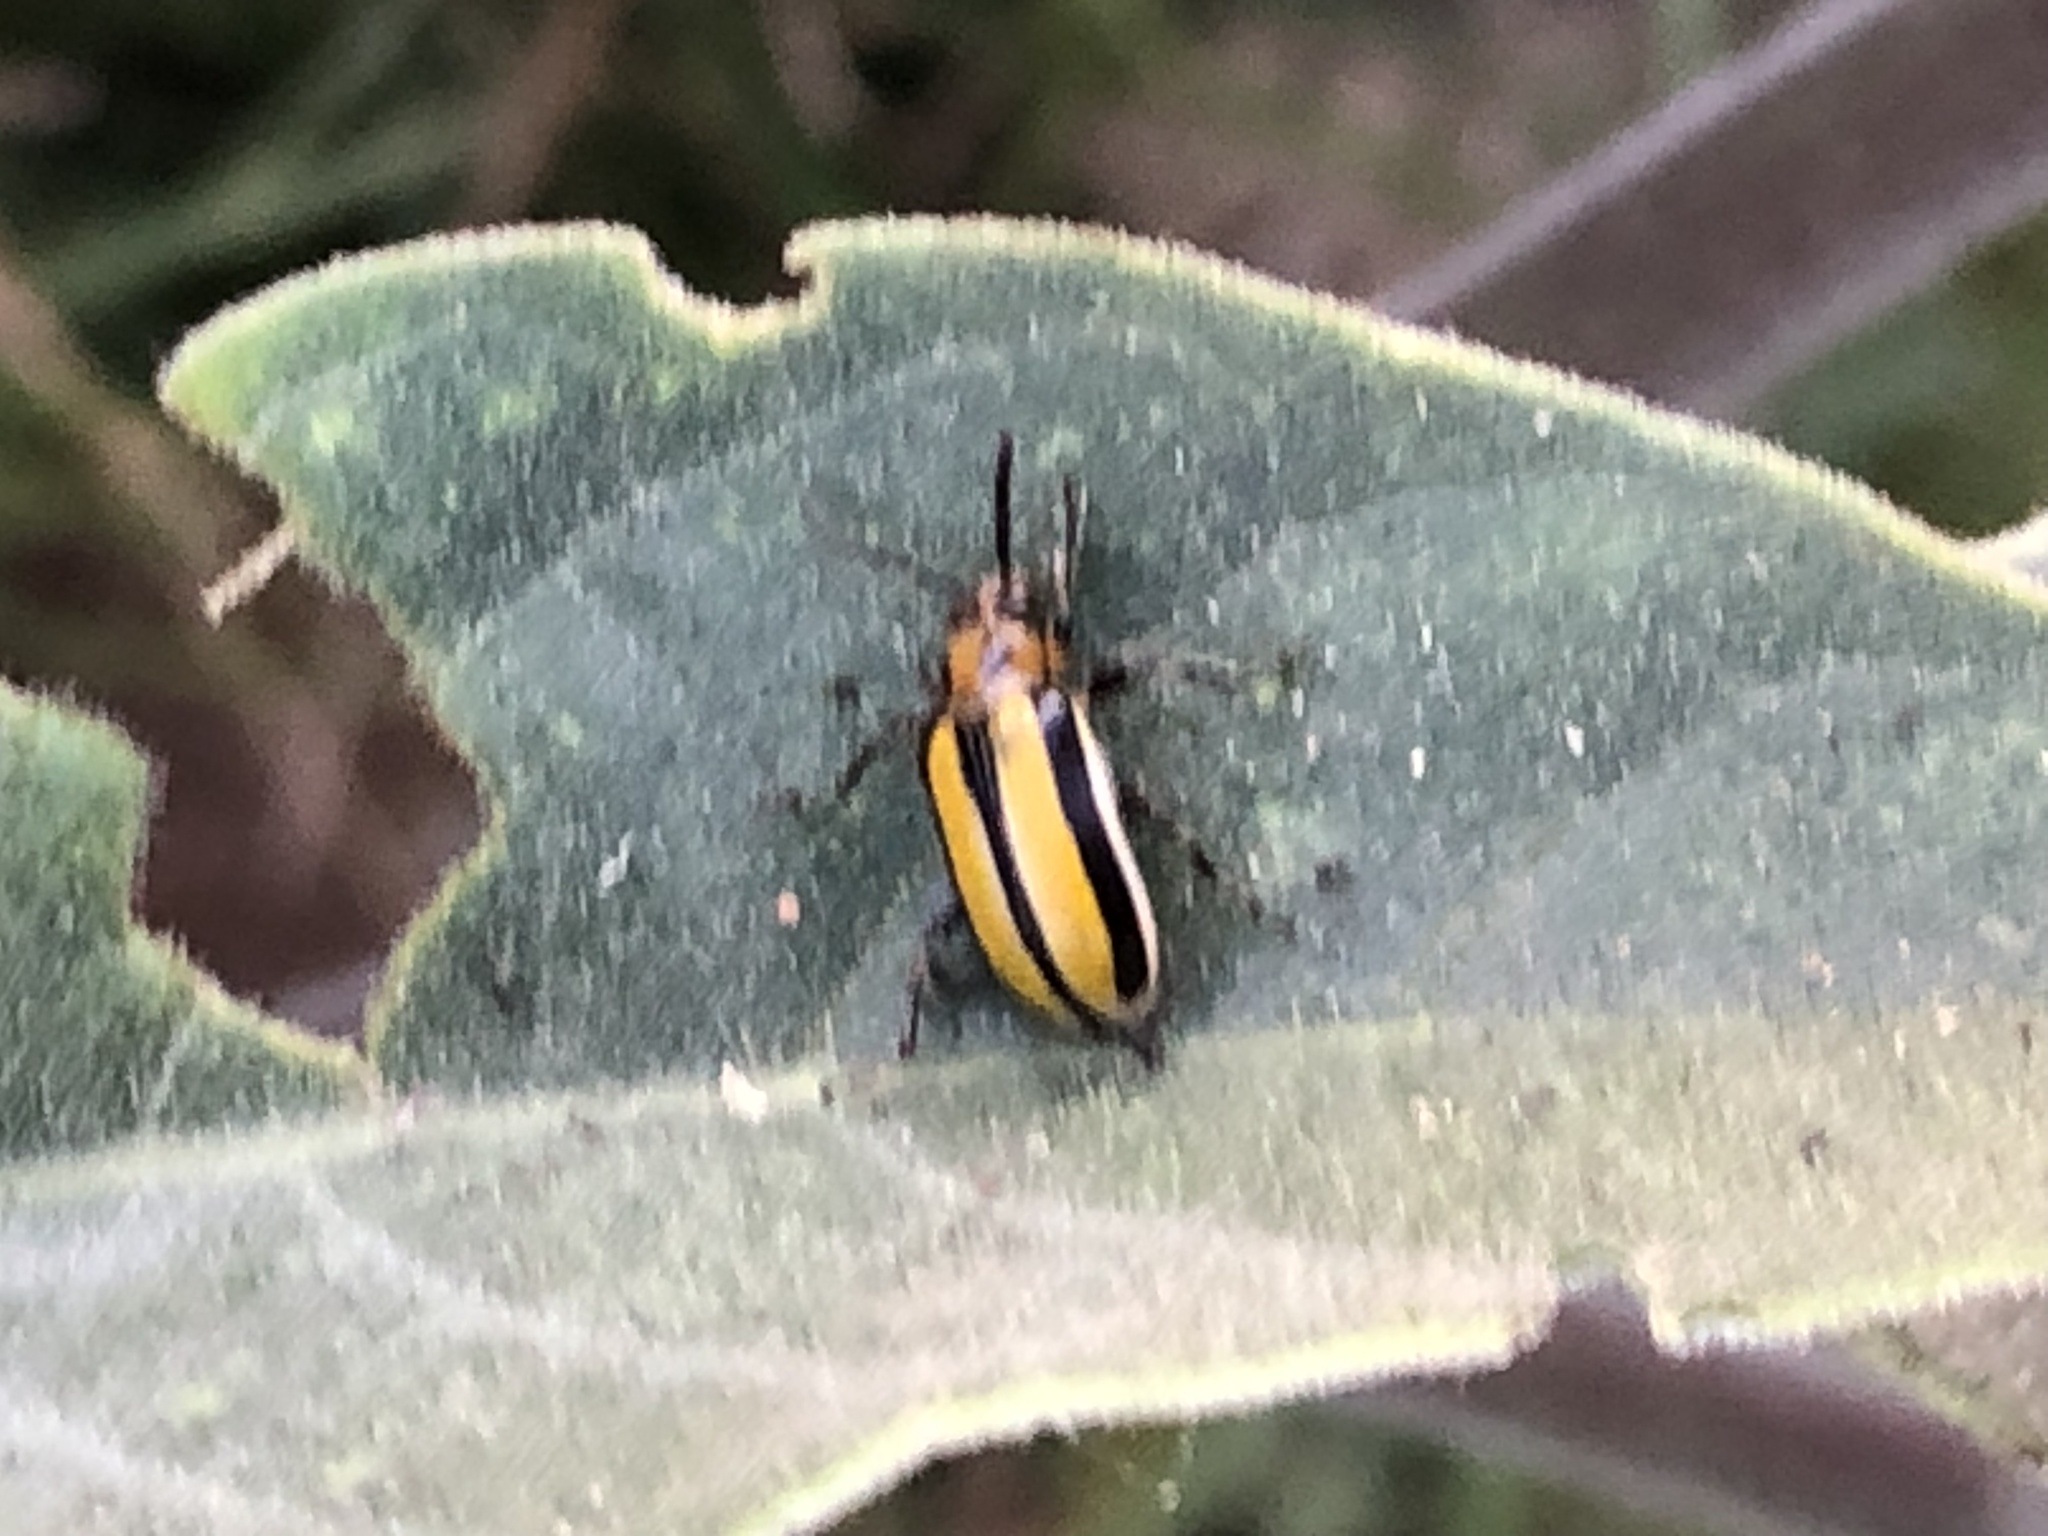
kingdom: Animalia
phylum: Arthropoda
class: Insecta
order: Coleoptera
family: Chrysomelidae
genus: Lema
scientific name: Lema daturaphila
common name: Leaf beetle
